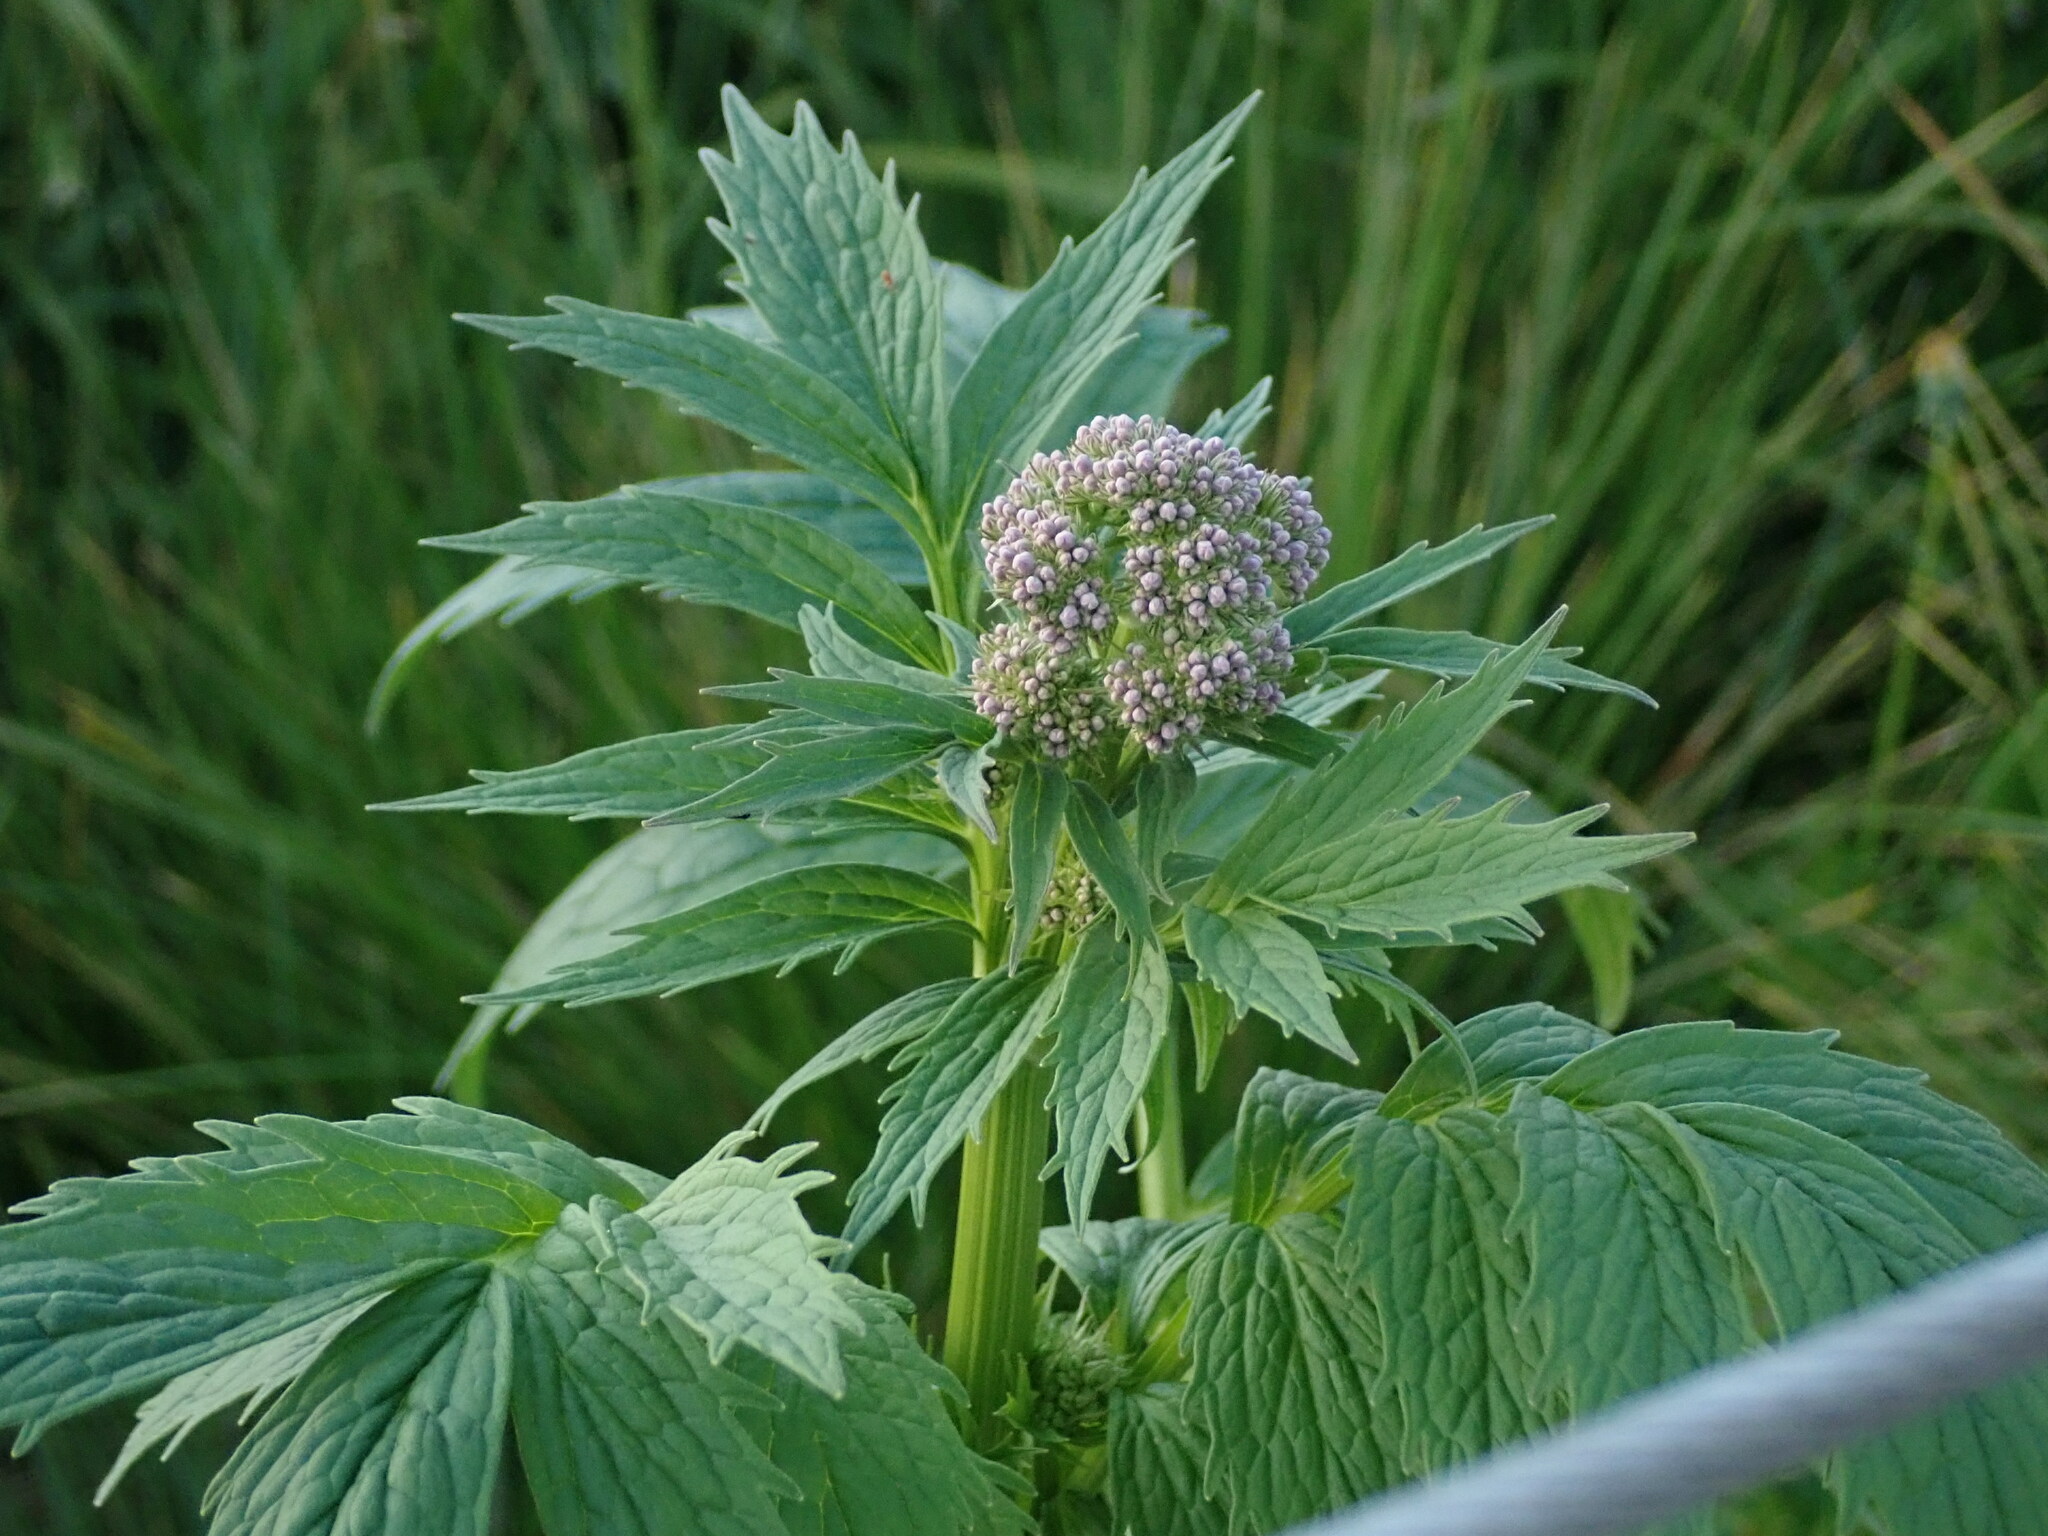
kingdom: Plantae
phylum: Tracheophyta
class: Magnoliopsida
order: Dipsacales
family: Caprifoliaceae
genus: Valeriana
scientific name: Valeriana officinalis
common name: Common valerian
